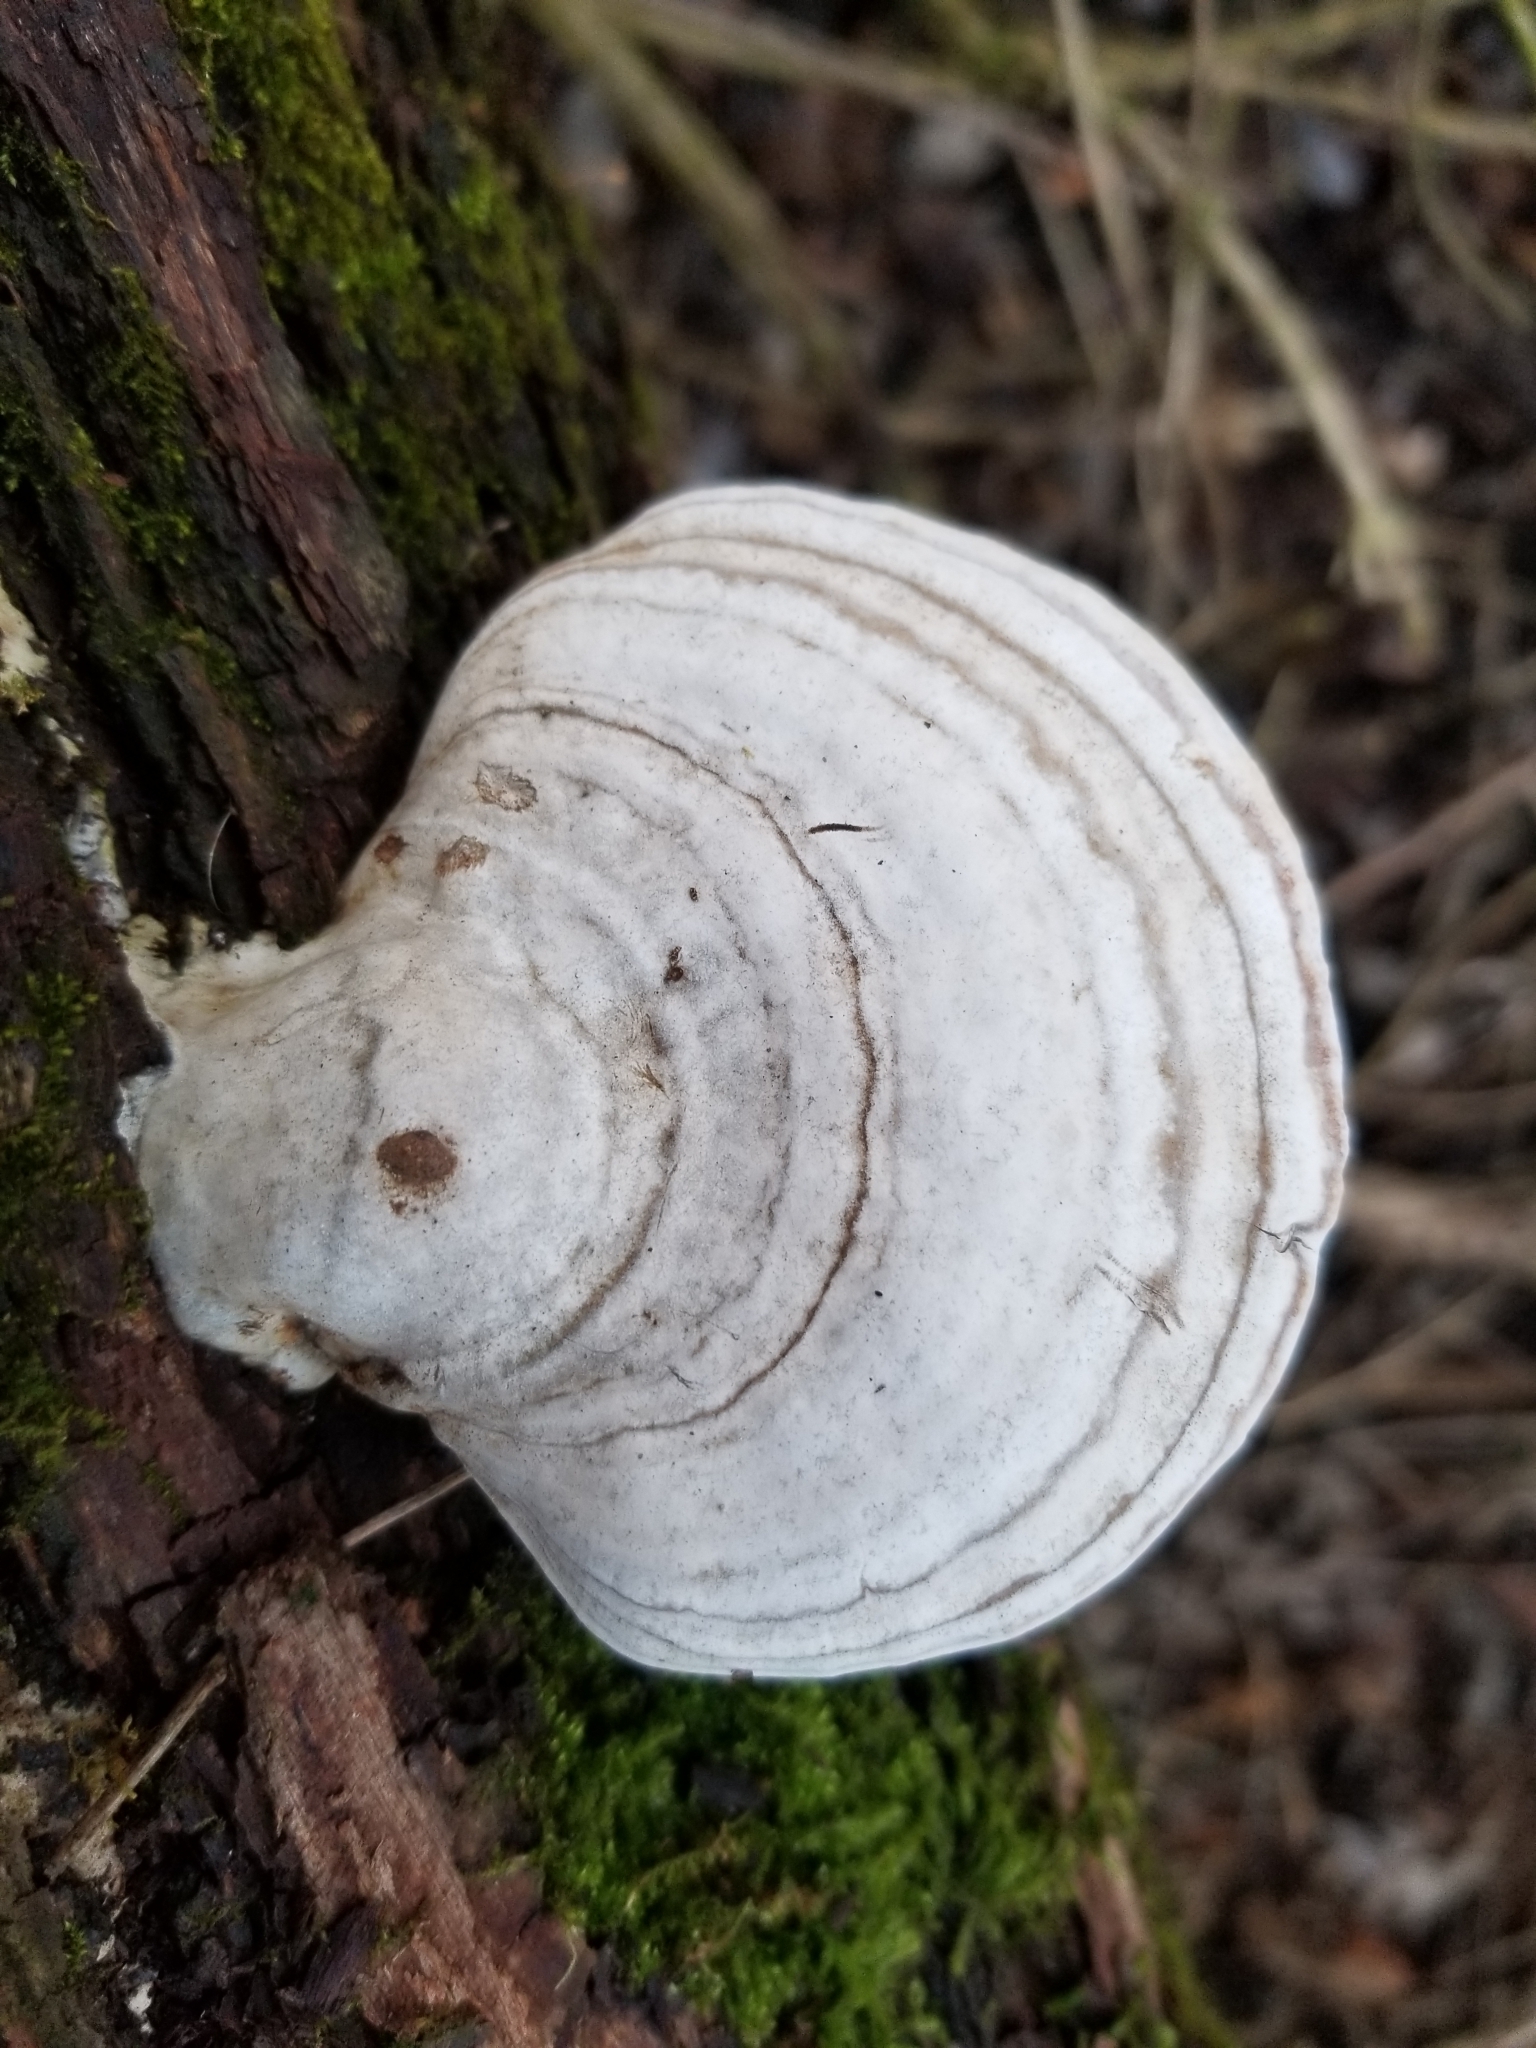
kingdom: Fungi
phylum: Basidiomycota
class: Agaricomycetes
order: Polyporales
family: Polyporaceae
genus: Ganoderma
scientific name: Ganoderma applanatum
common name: Artist's bracket
